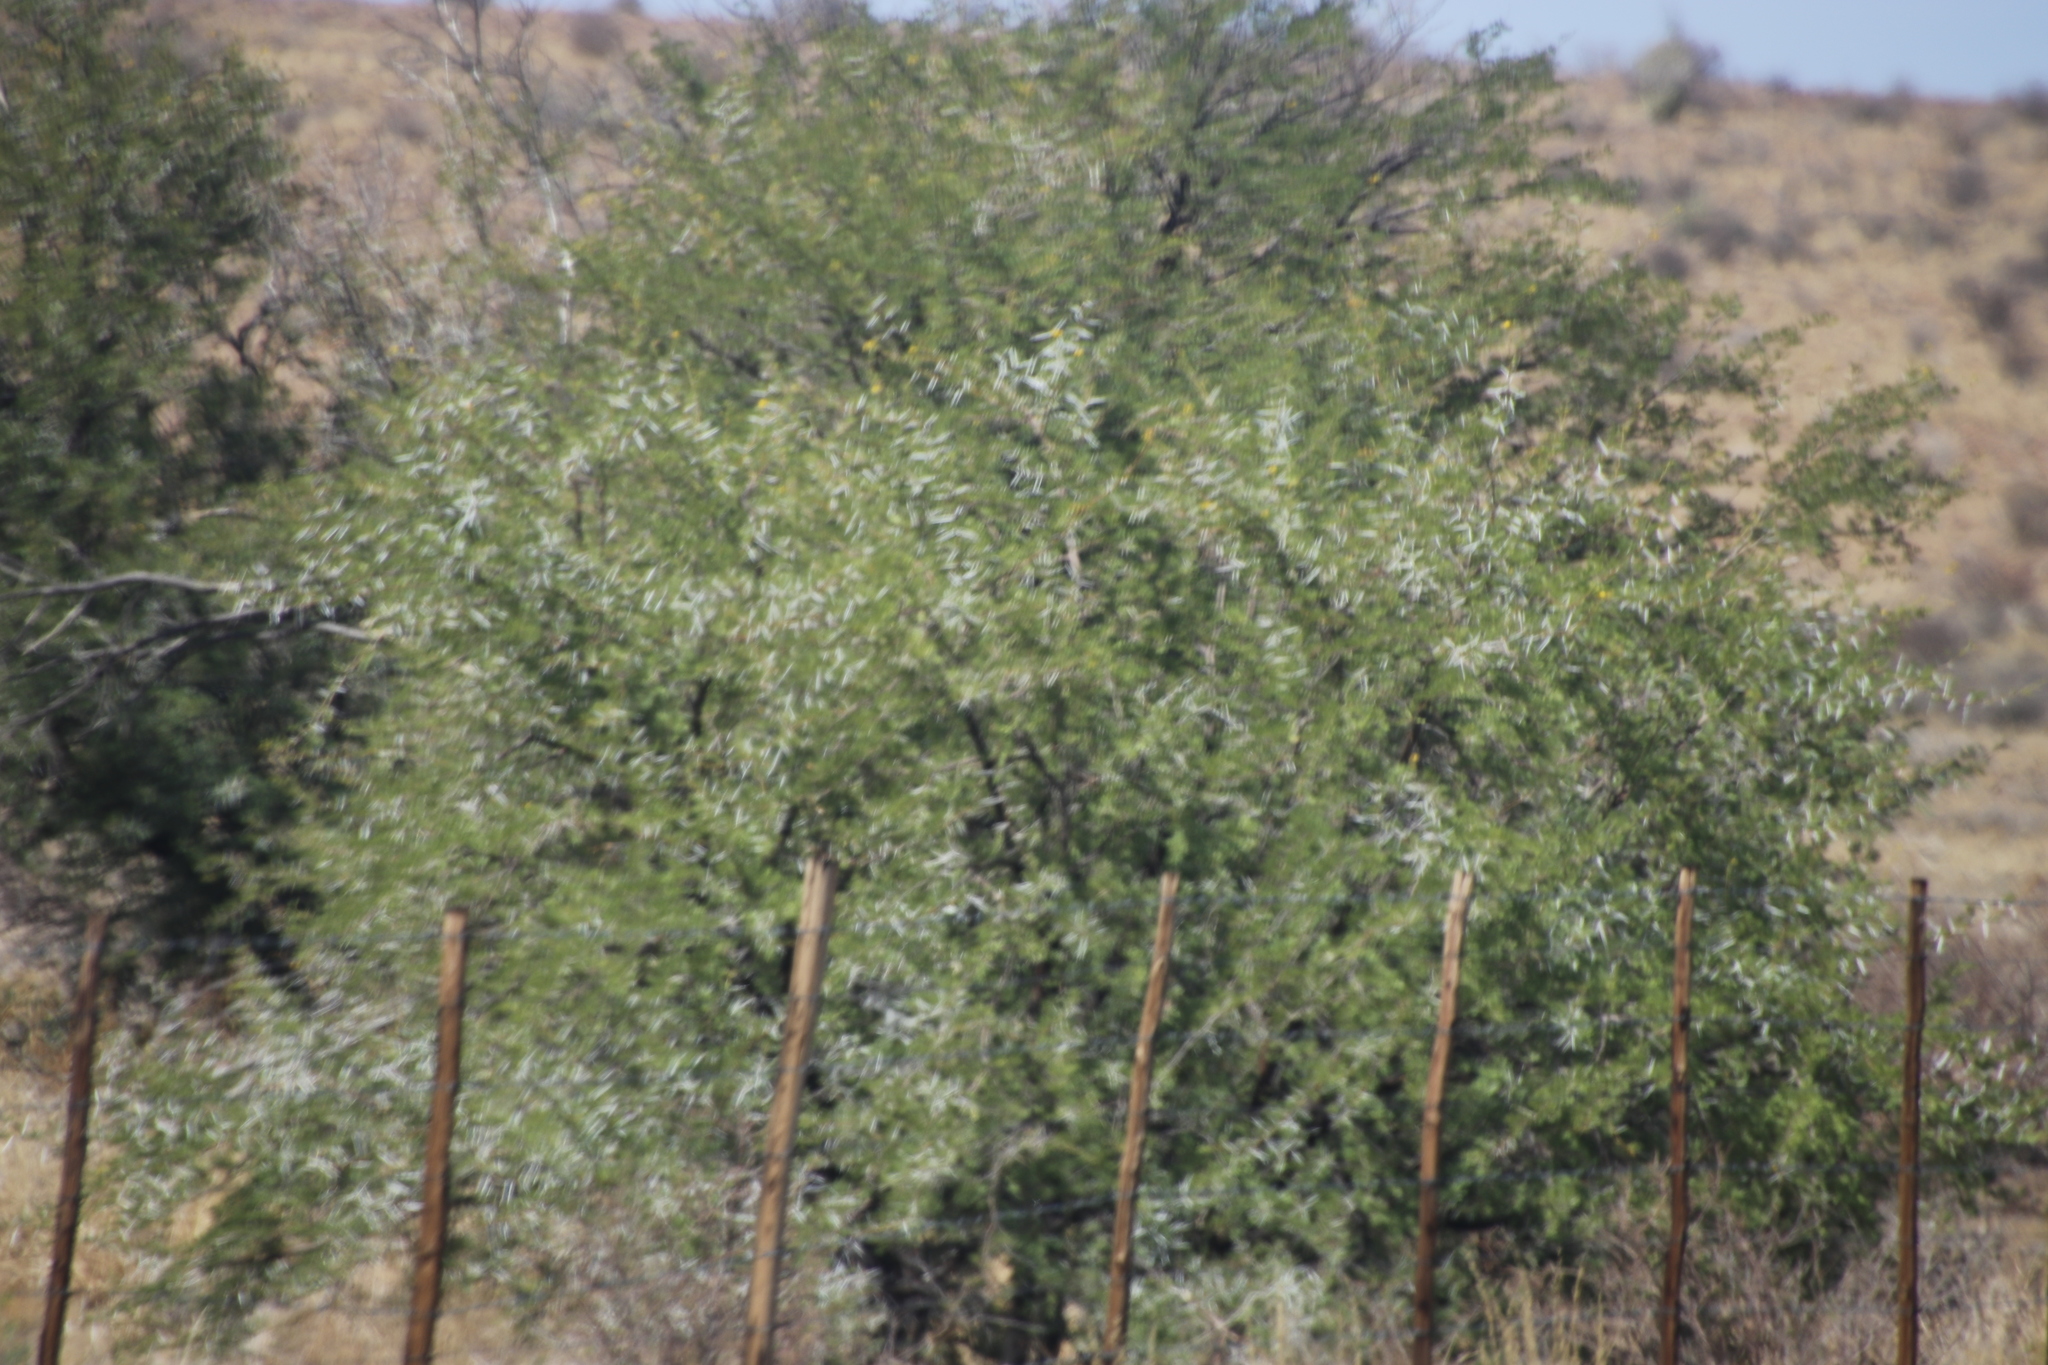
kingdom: Plantae
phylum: Tracheophyta
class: Magnoliopsida
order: Fabales
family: Fabaceae
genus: Vachellia
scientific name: Vachellia karroo
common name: Sweet thorn
